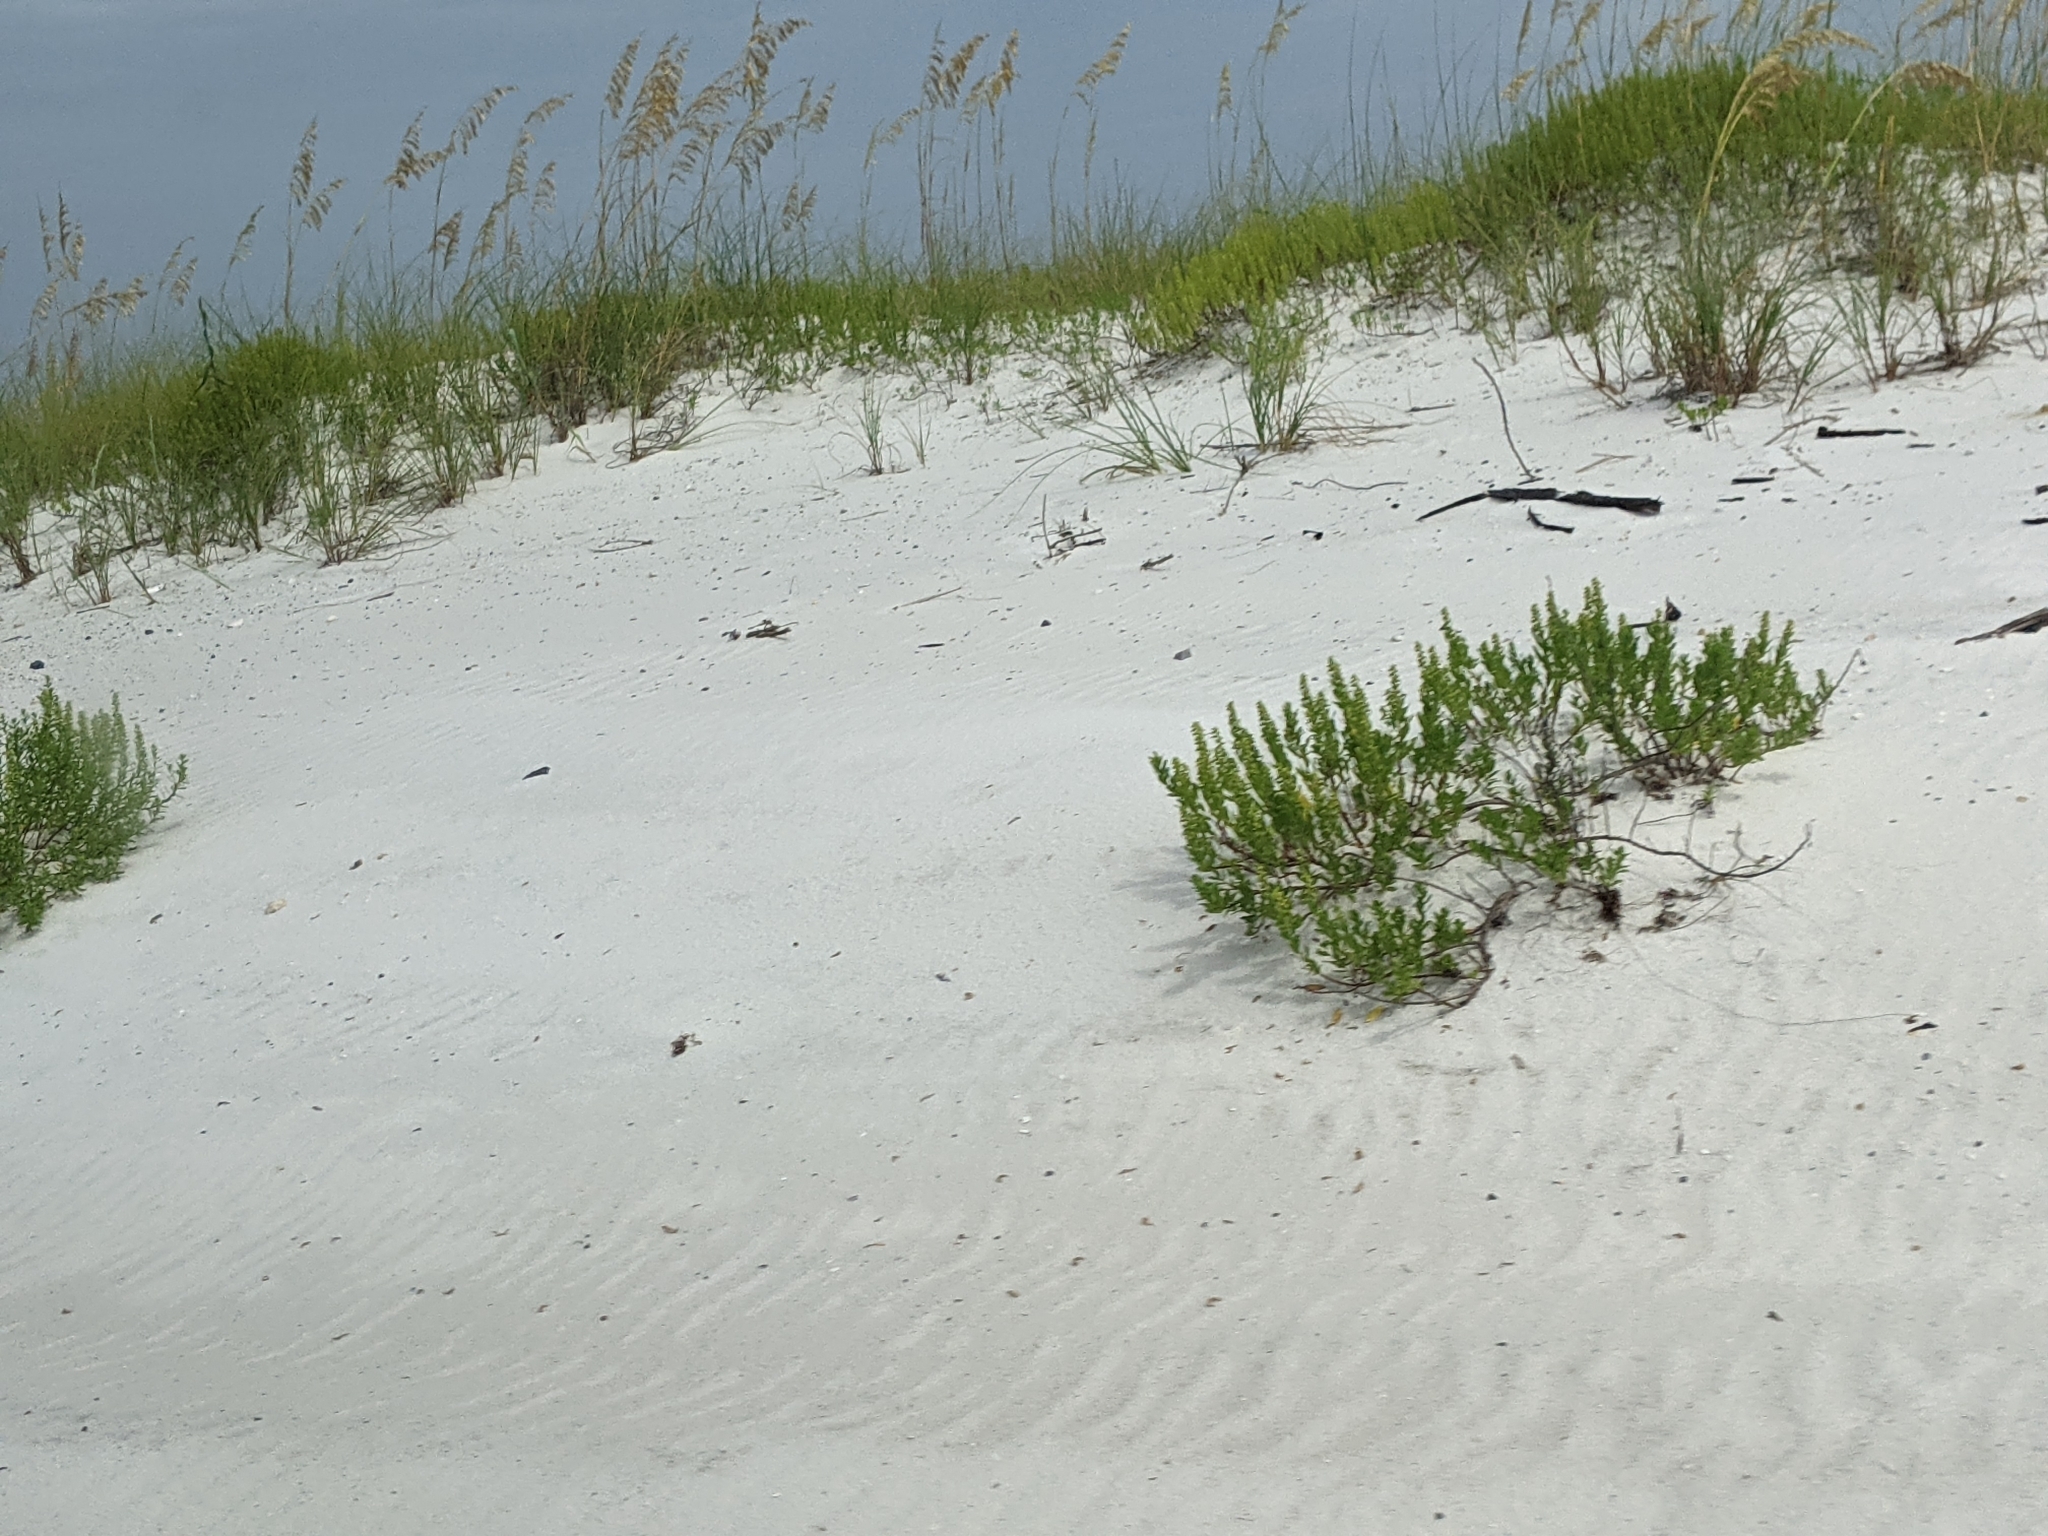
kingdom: Plantae
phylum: Tracheophyta
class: Magnoliopsida
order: Asterales
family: Asteraceae
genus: Iva
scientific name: Iva imbricata
